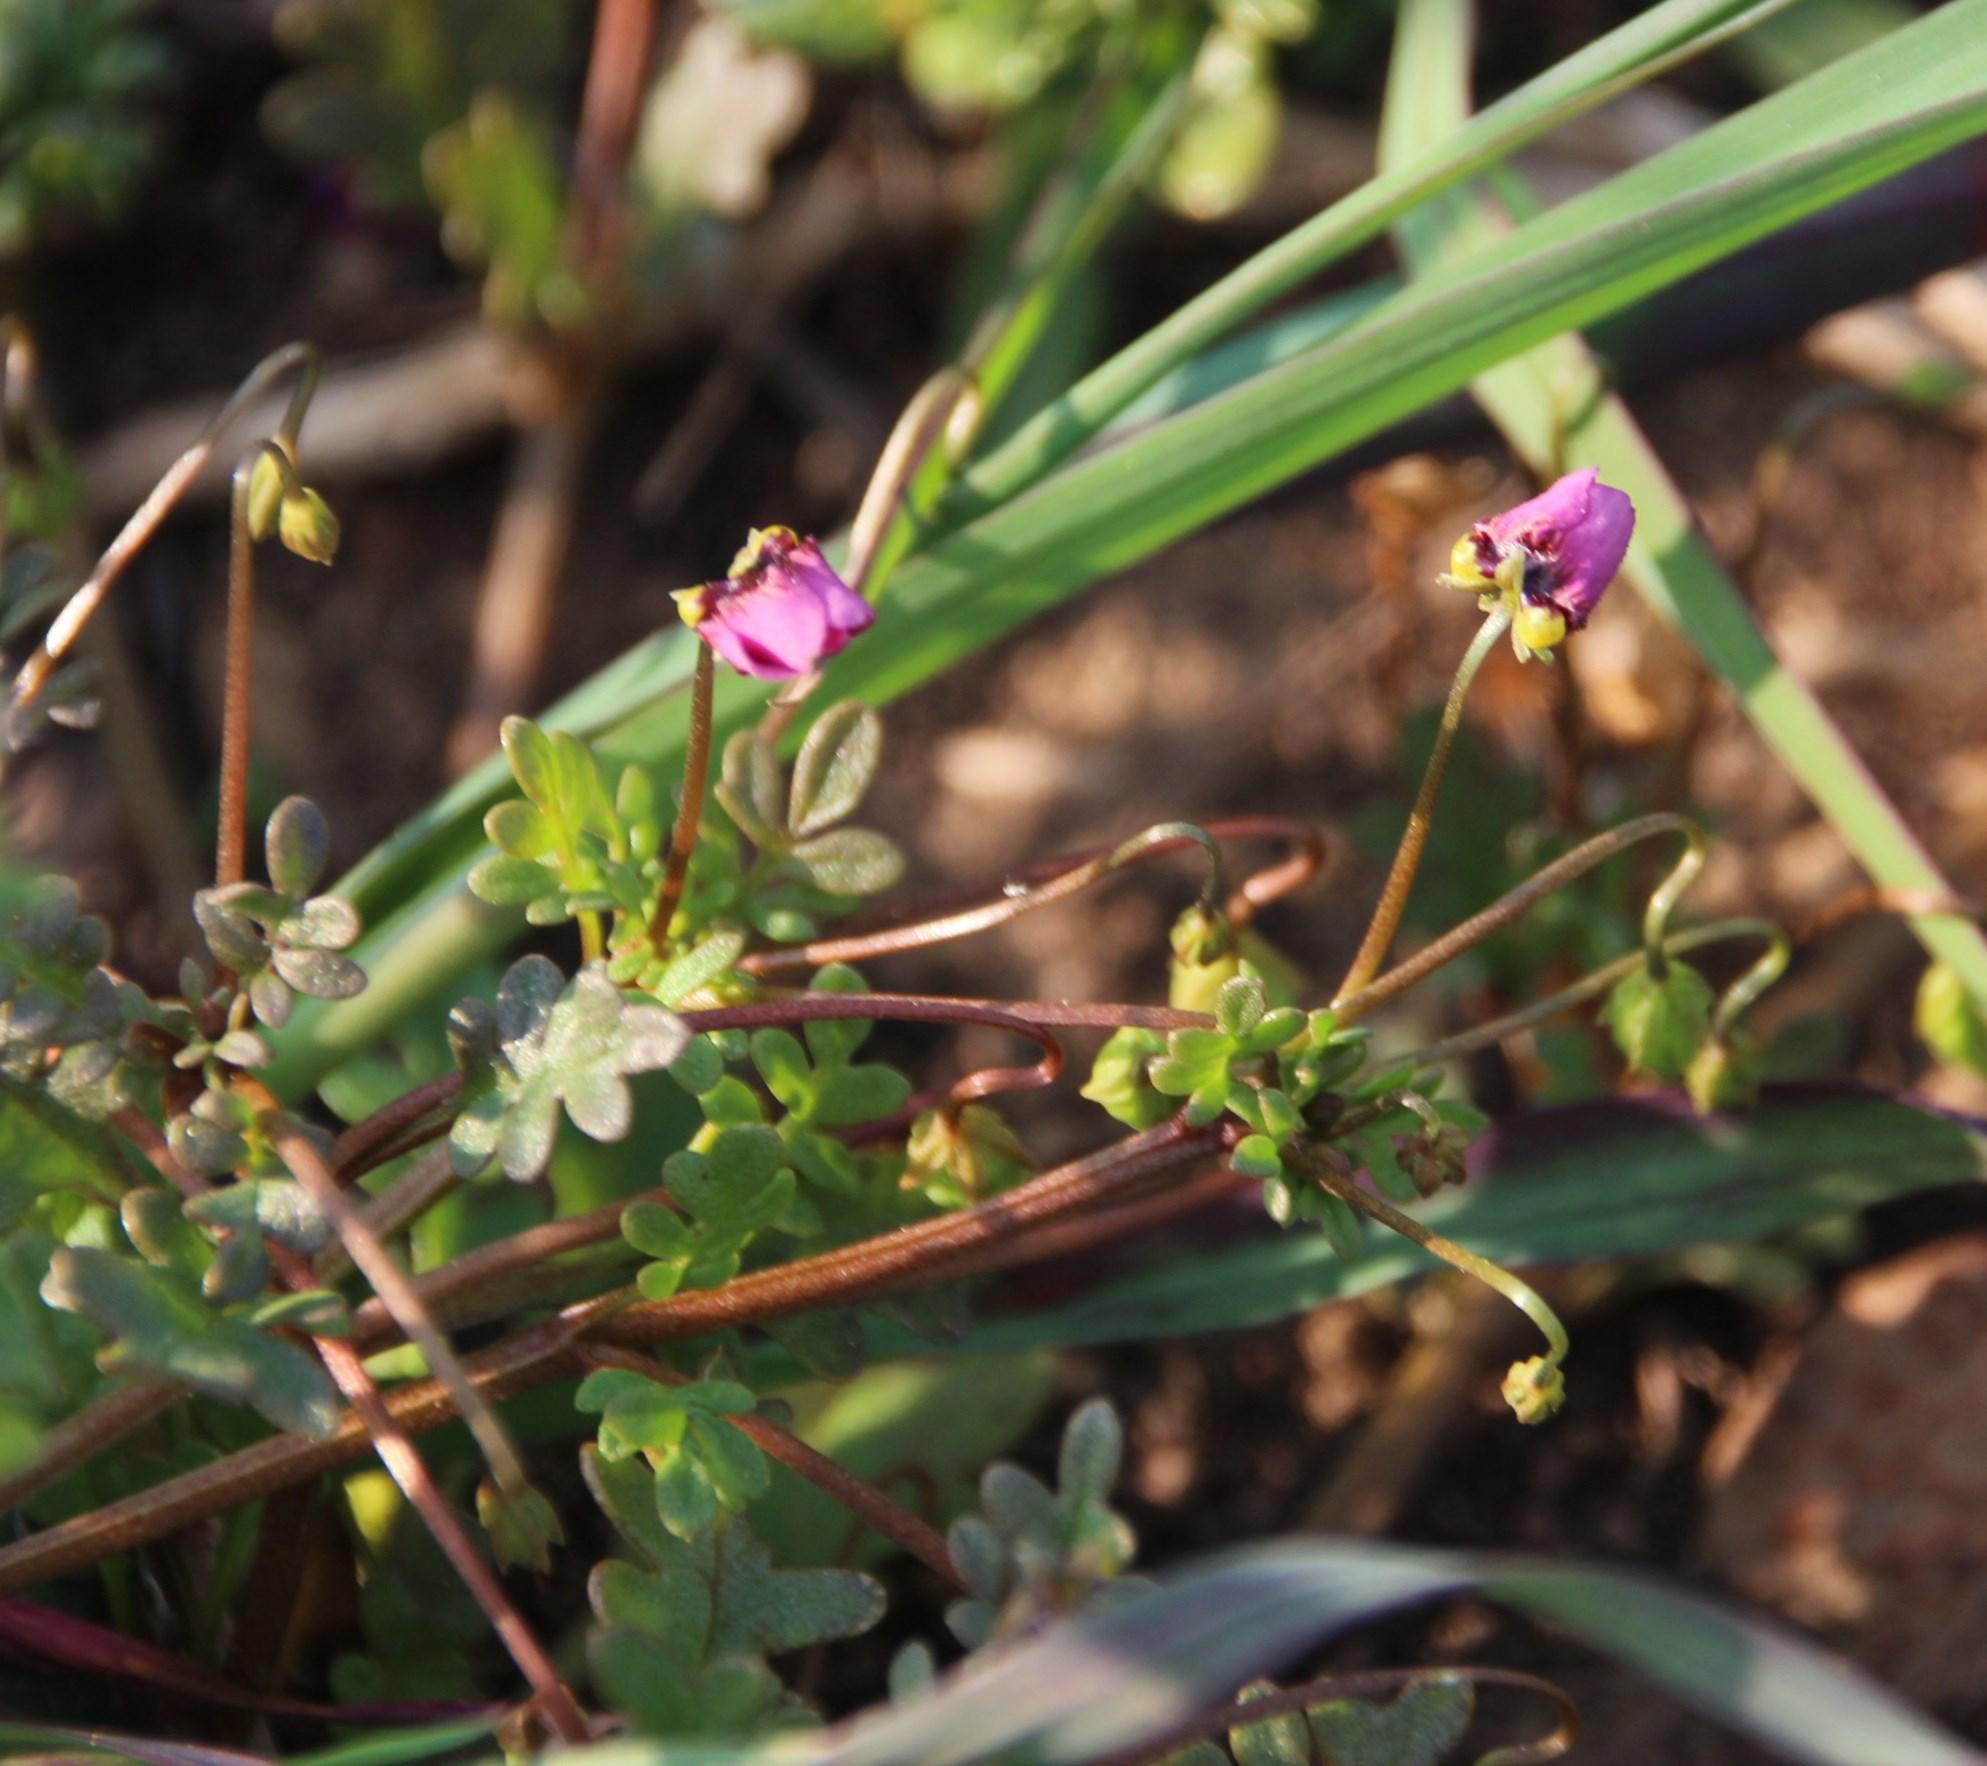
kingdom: Plantae
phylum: Tracheophyta
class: Magnoliopsida
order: Lamiales
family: Scrophulariaceae
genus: Diascia
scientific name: Diascia elongata
